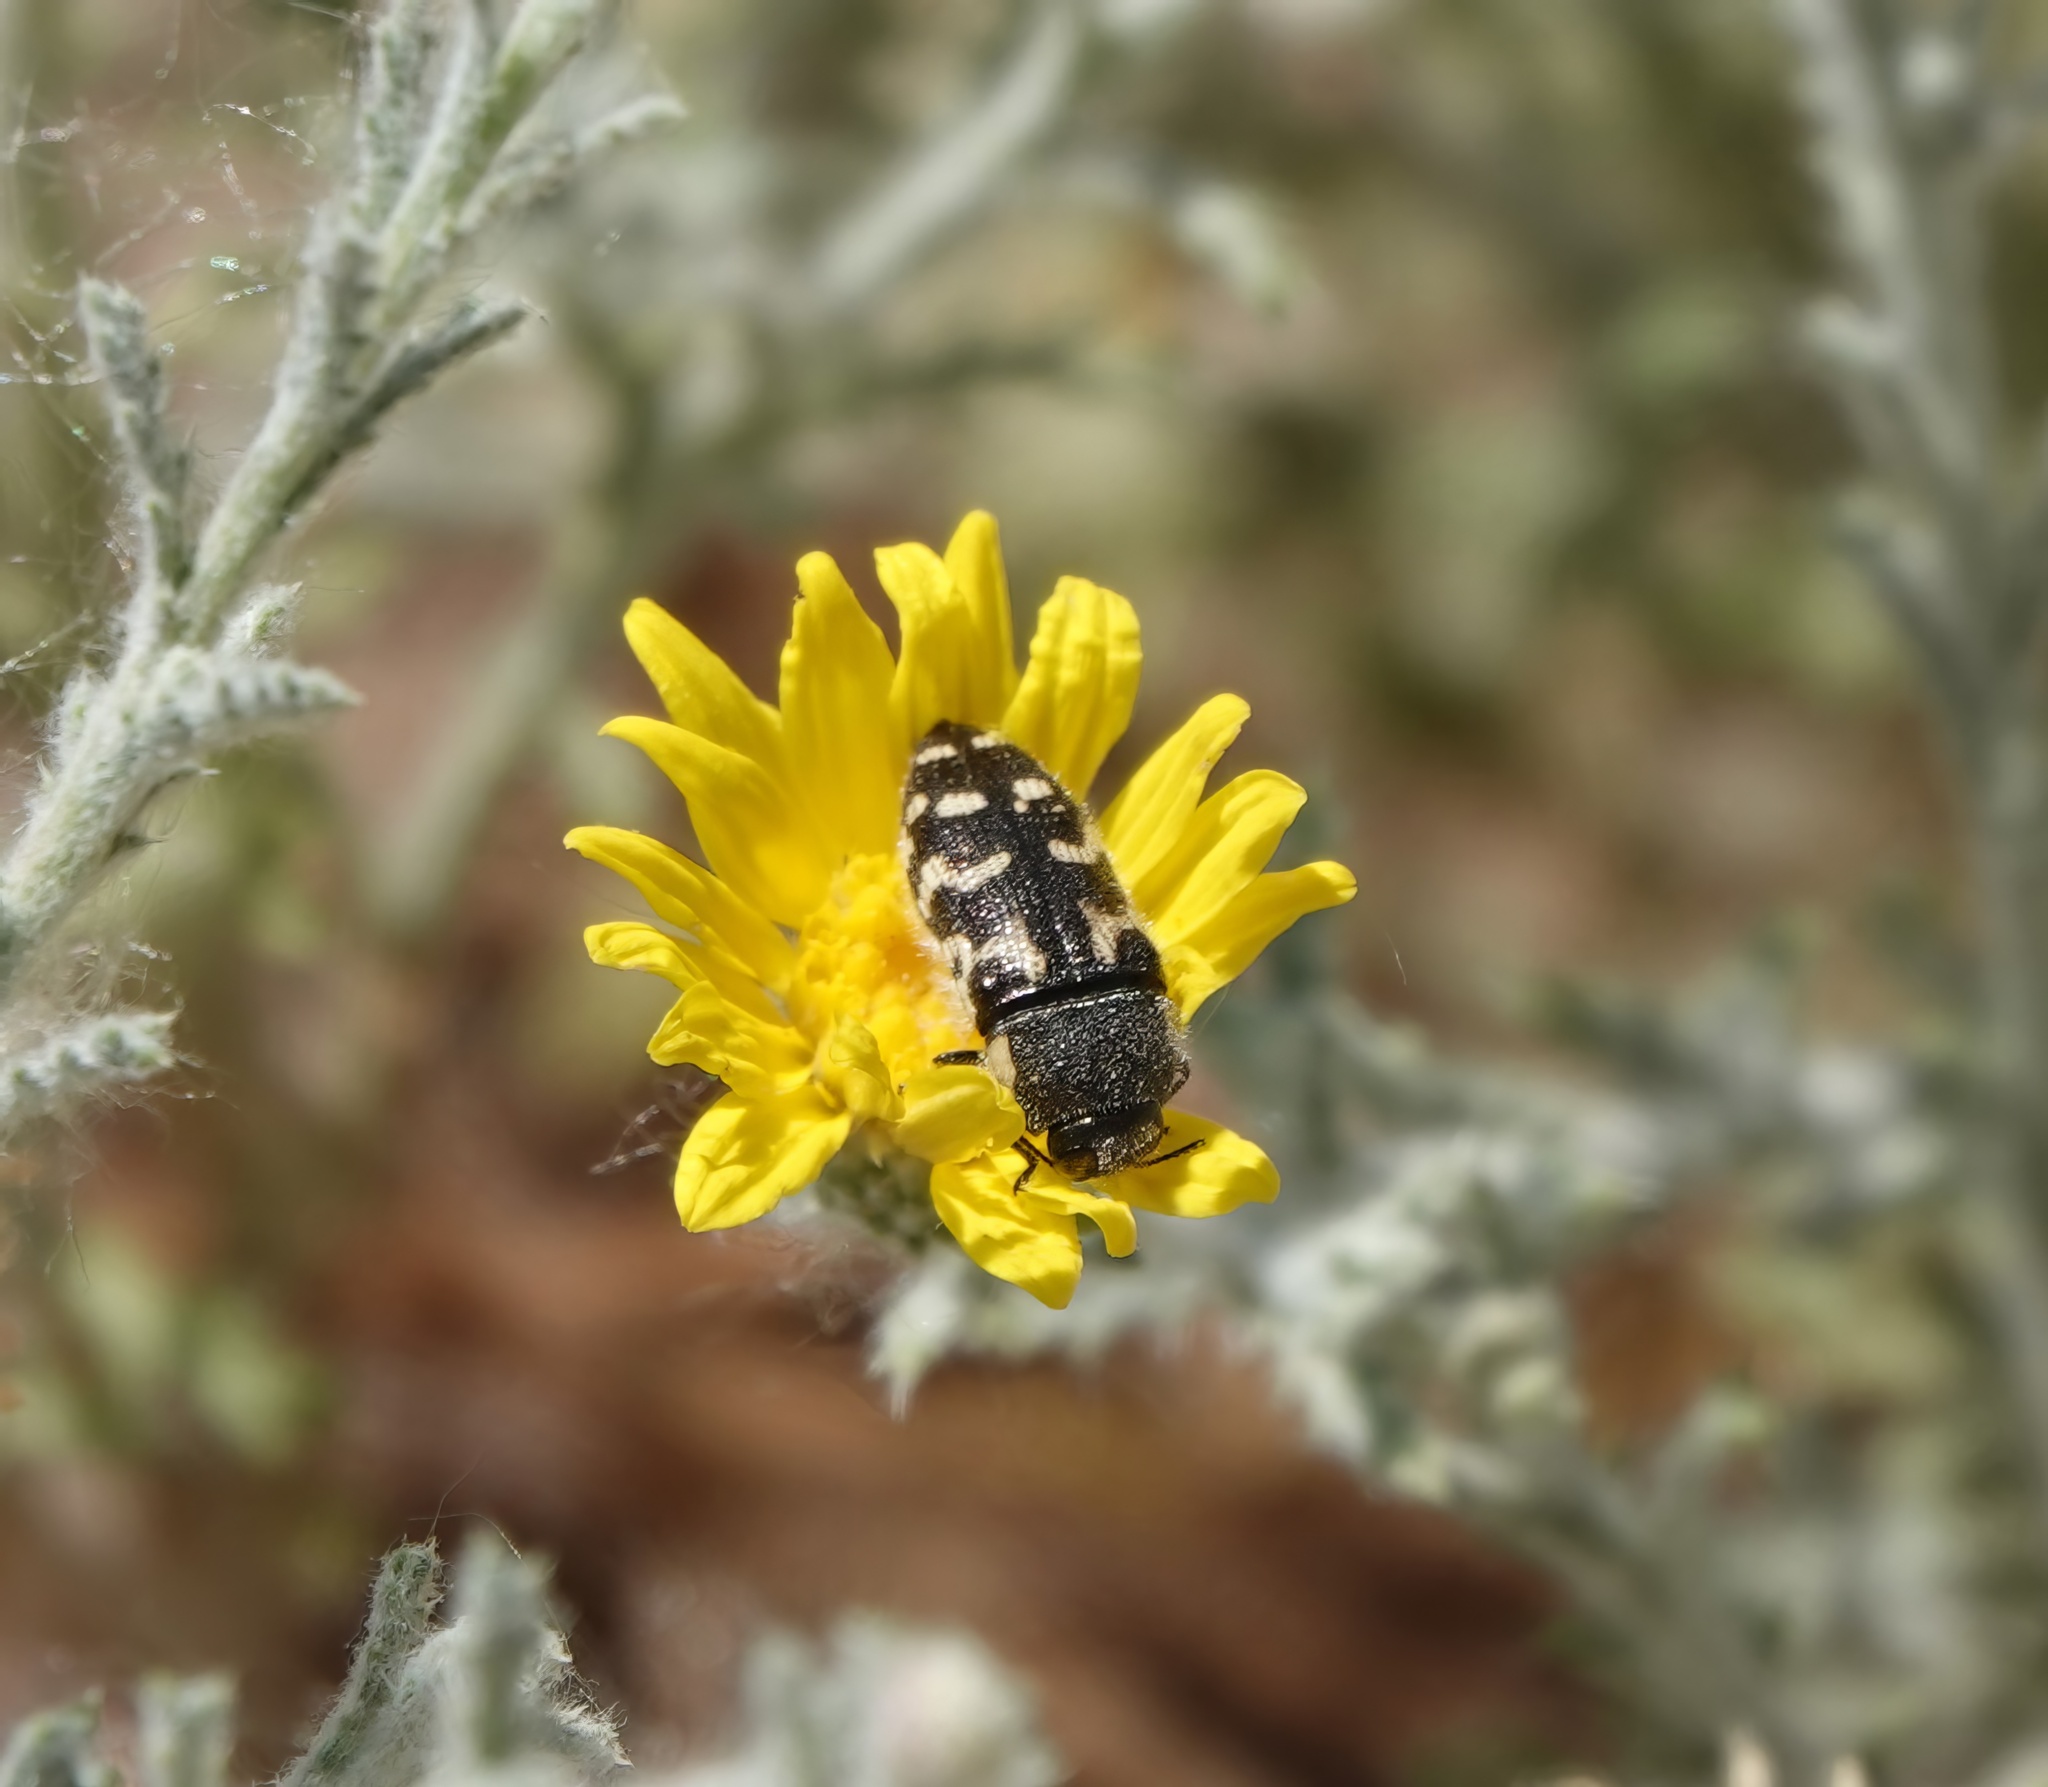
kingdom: Animalia
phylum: Arthropoda
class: Insecta
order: Coleoptera
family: Buprestidae
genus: Acmaeodera
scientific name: Acmaeodera mixta
